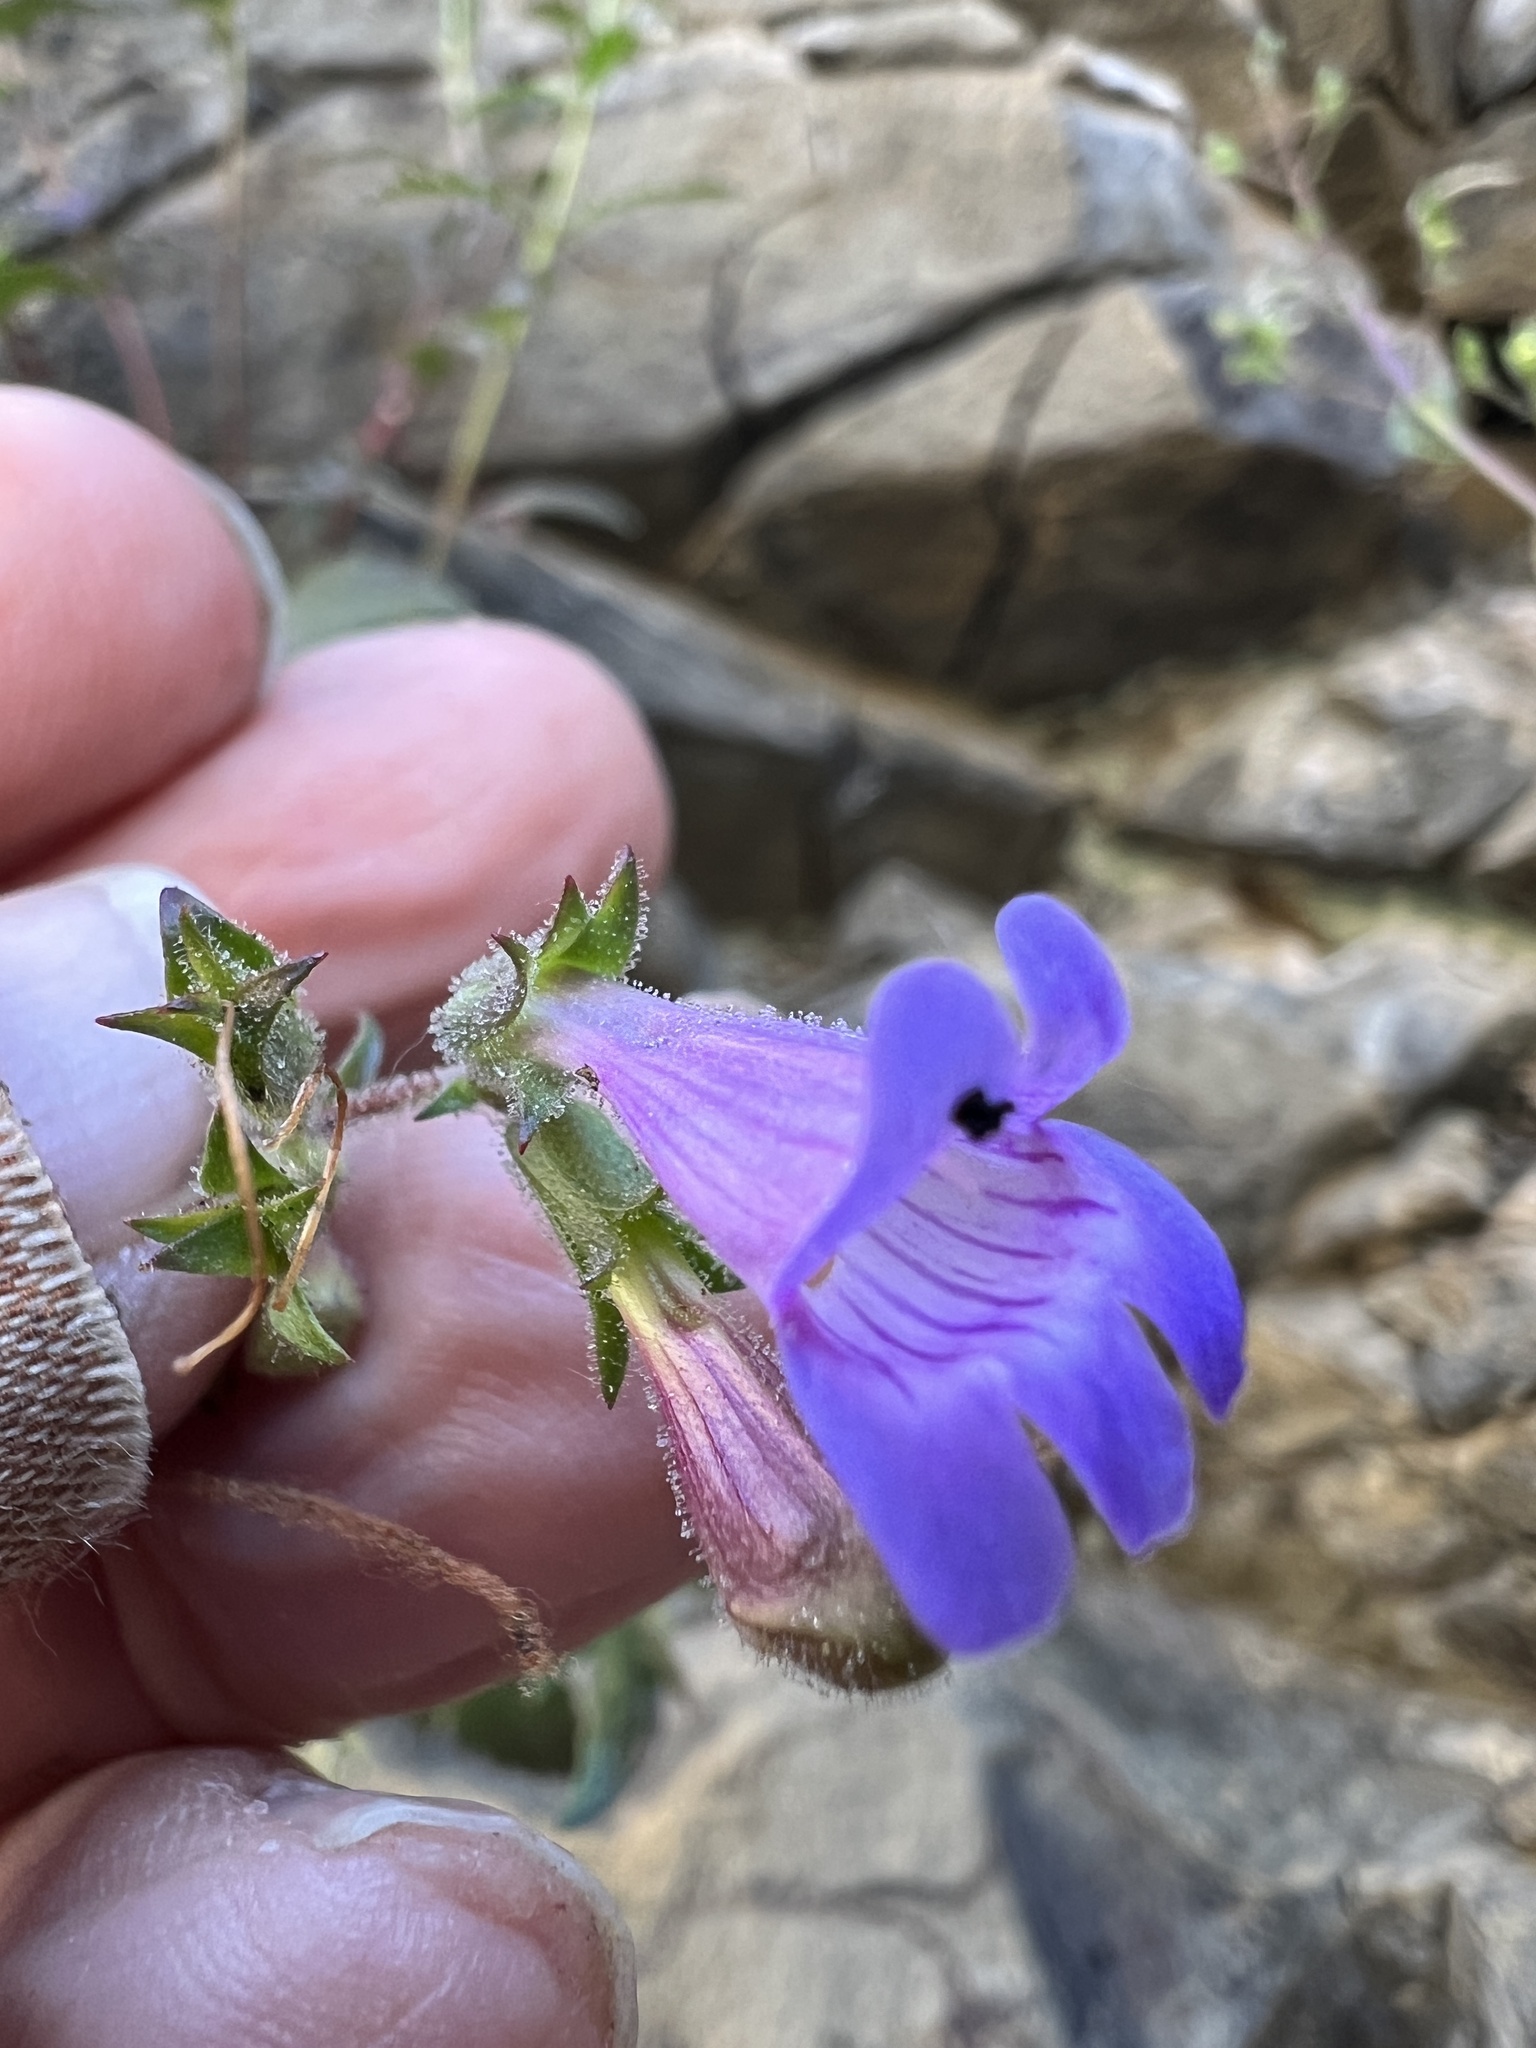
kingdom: Plantae
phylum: Tracheophyta
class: Magnoliopsida
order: Lamiales
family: Plantaginaceae
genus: Penstemon
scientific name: Penstemon richardsonii
